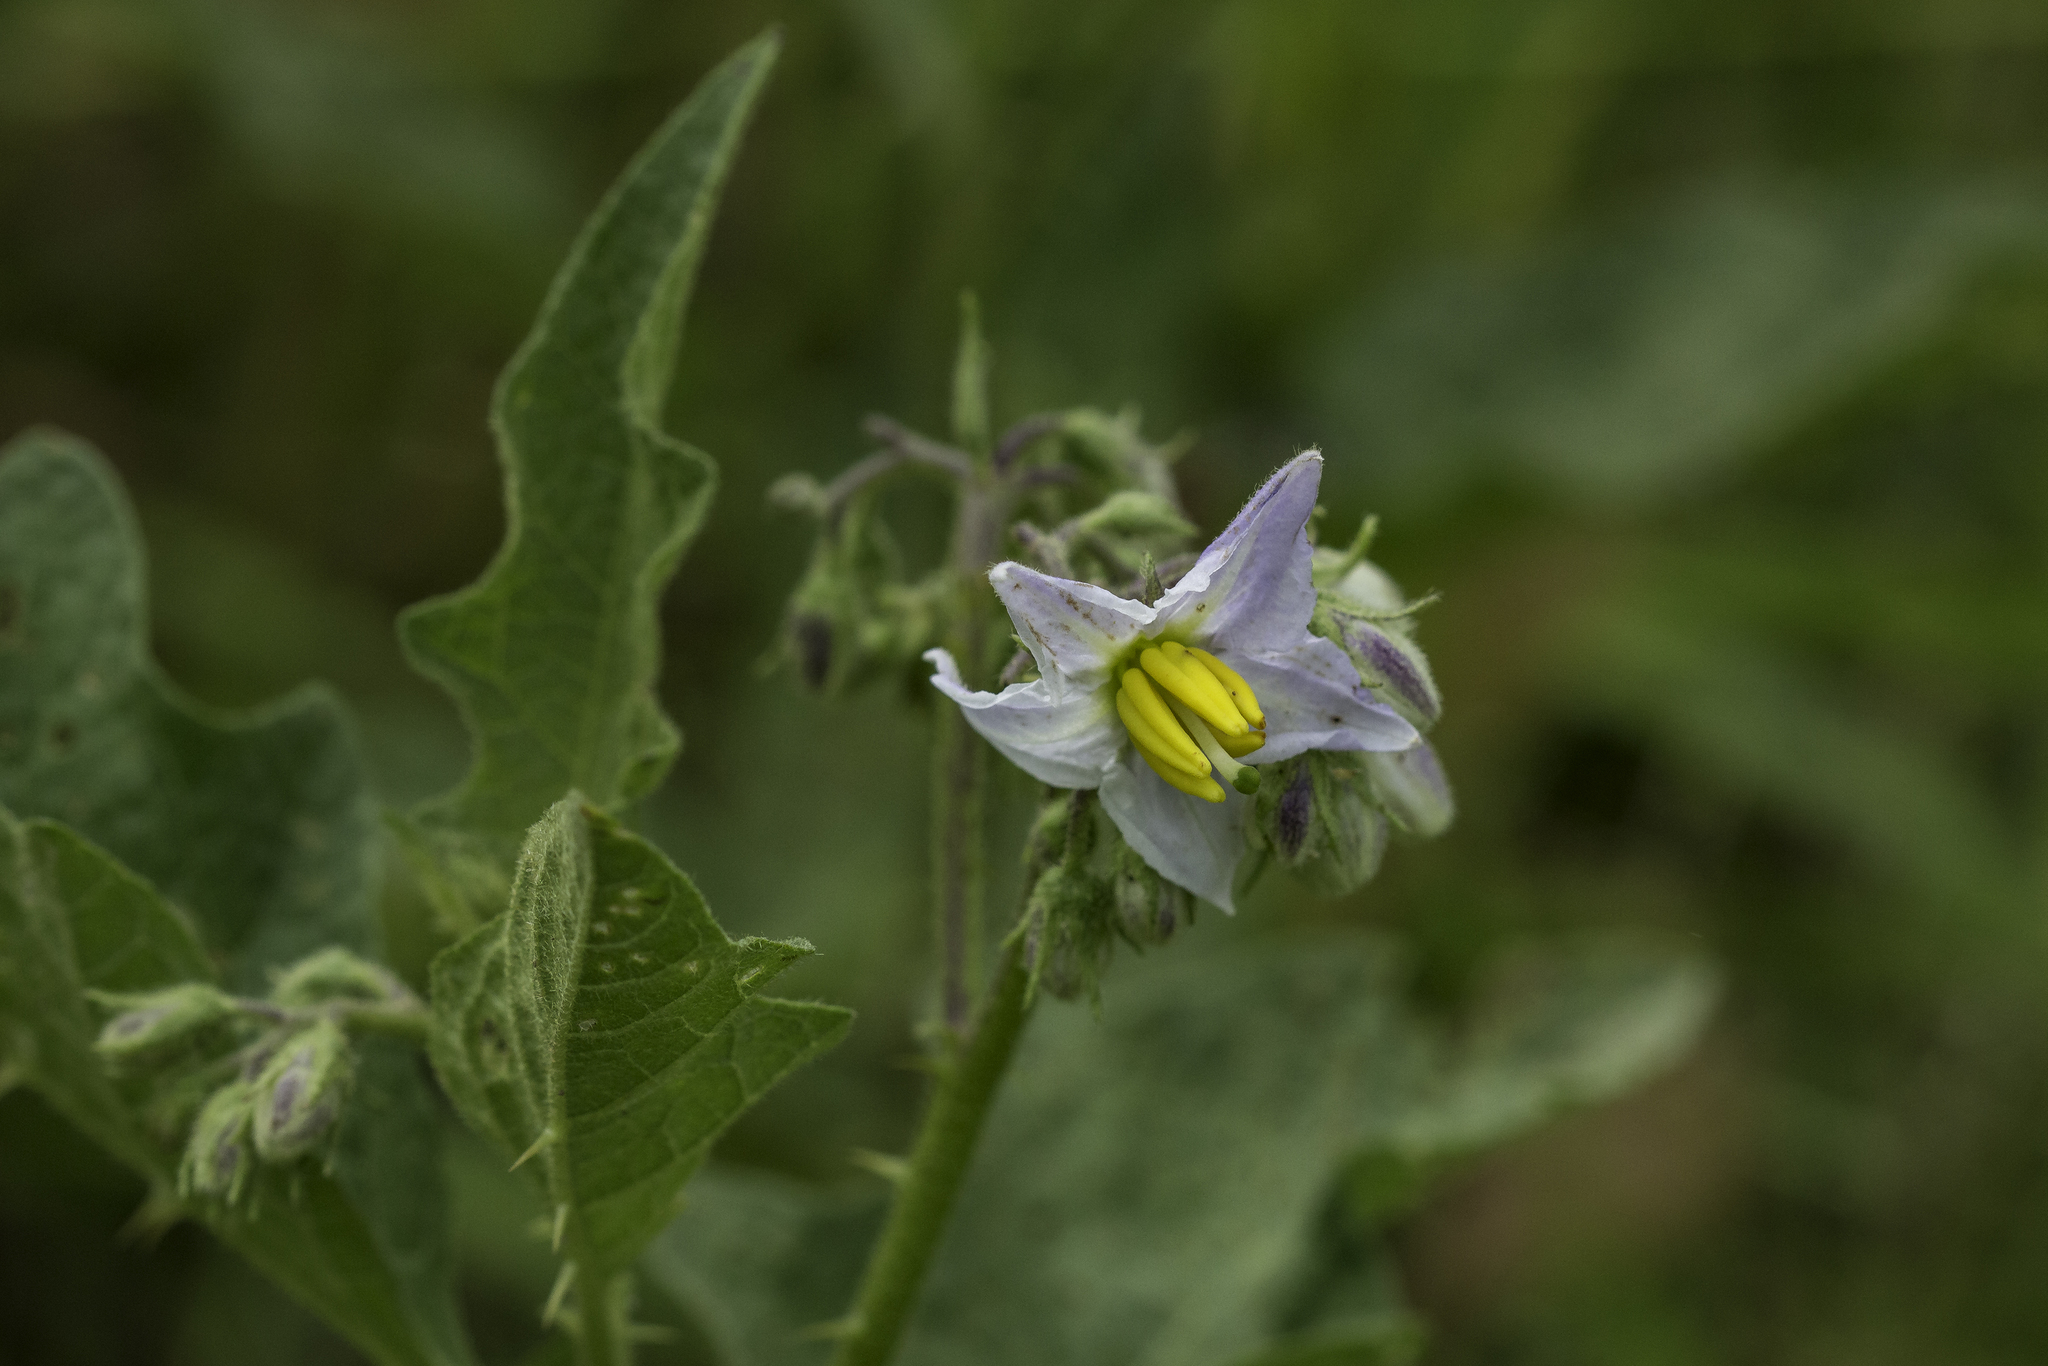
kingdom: Plantae
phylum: Tracheophyta
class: Magnoliopsida
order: Solanales
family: Solanaceae
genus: Solanum
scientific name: Solanum carolinense
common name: Horse-nettle
